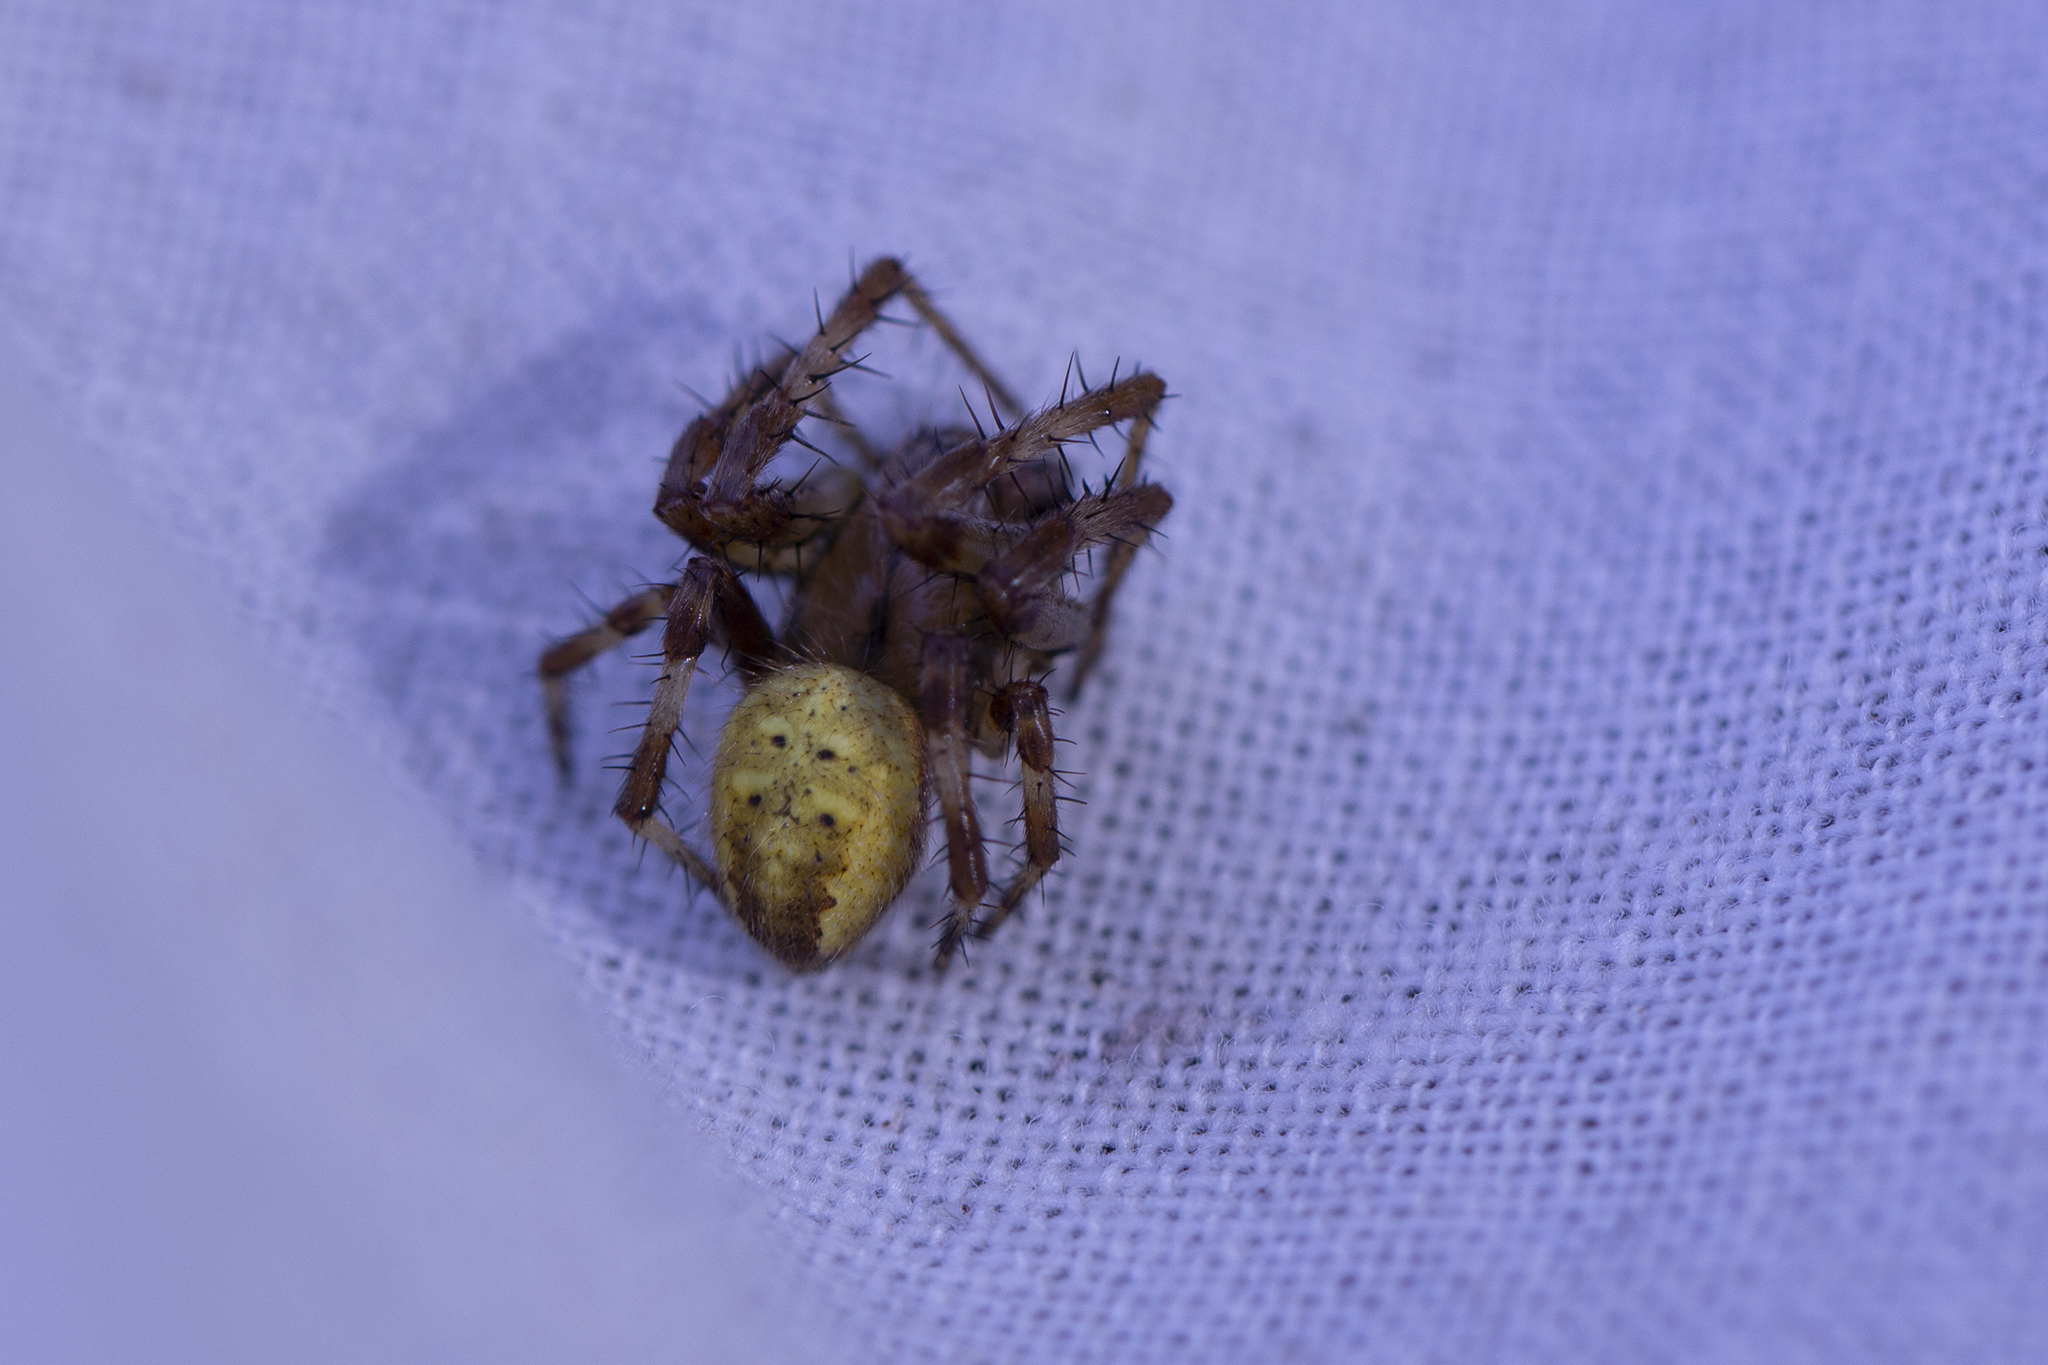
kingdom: Animalia
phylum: Arthropoda
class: Arachnida
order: Araneae
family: Araneidae
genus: Araneus
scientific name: Araneus quadratus
